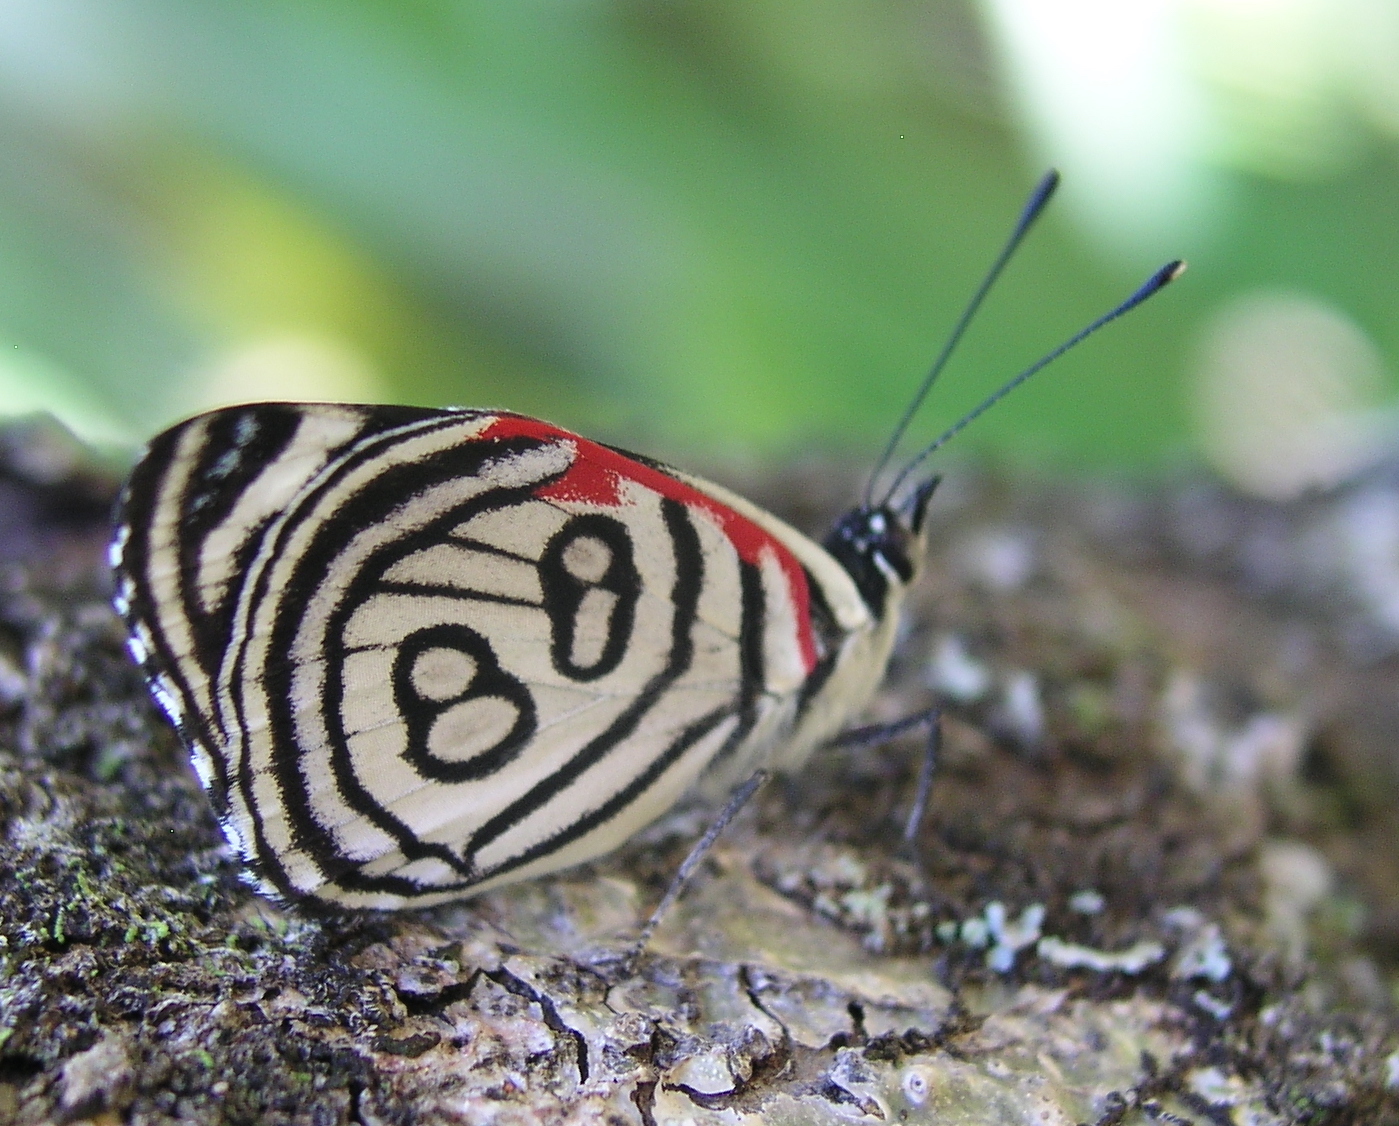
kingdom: Animalia
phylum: Arthropoda
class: Insecta
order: Lepidoptera
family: Nymphalidae
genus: Diaethria
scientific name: Diaethria candrena
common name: Number eighty
